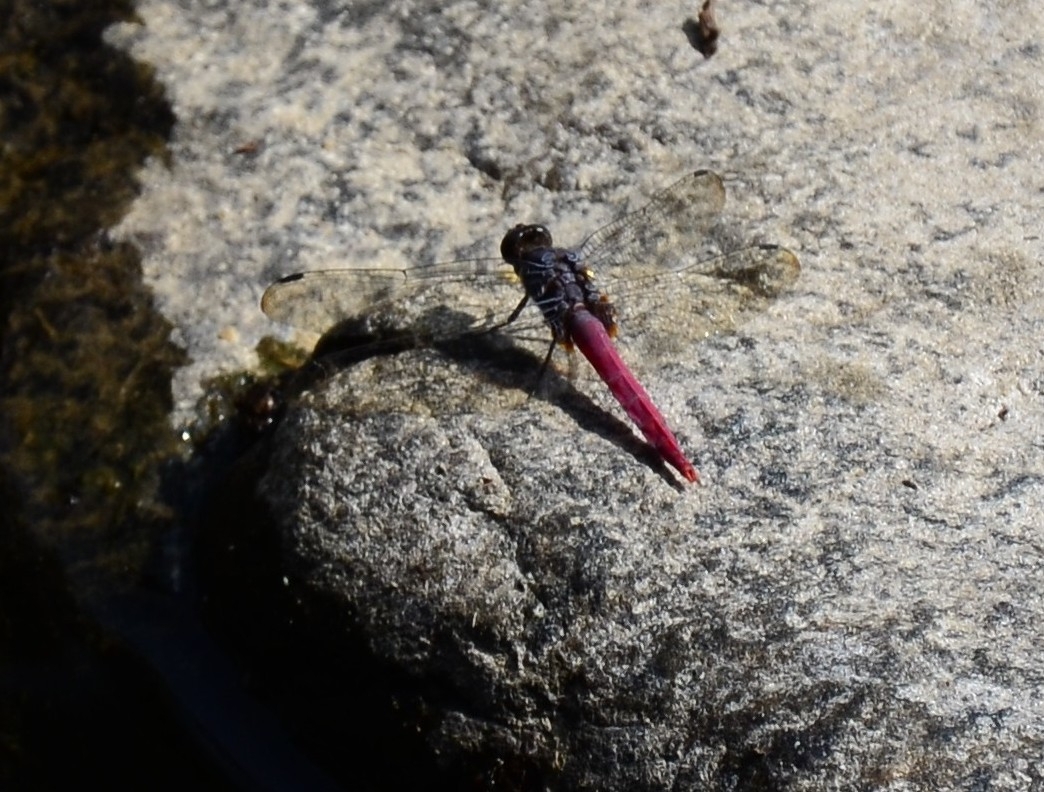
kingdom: Animalia
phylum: Arthropoda
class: Insecta
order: Odonata
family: Libellulidae
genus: Orthetrum
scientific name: Orthetrum pruinosum
